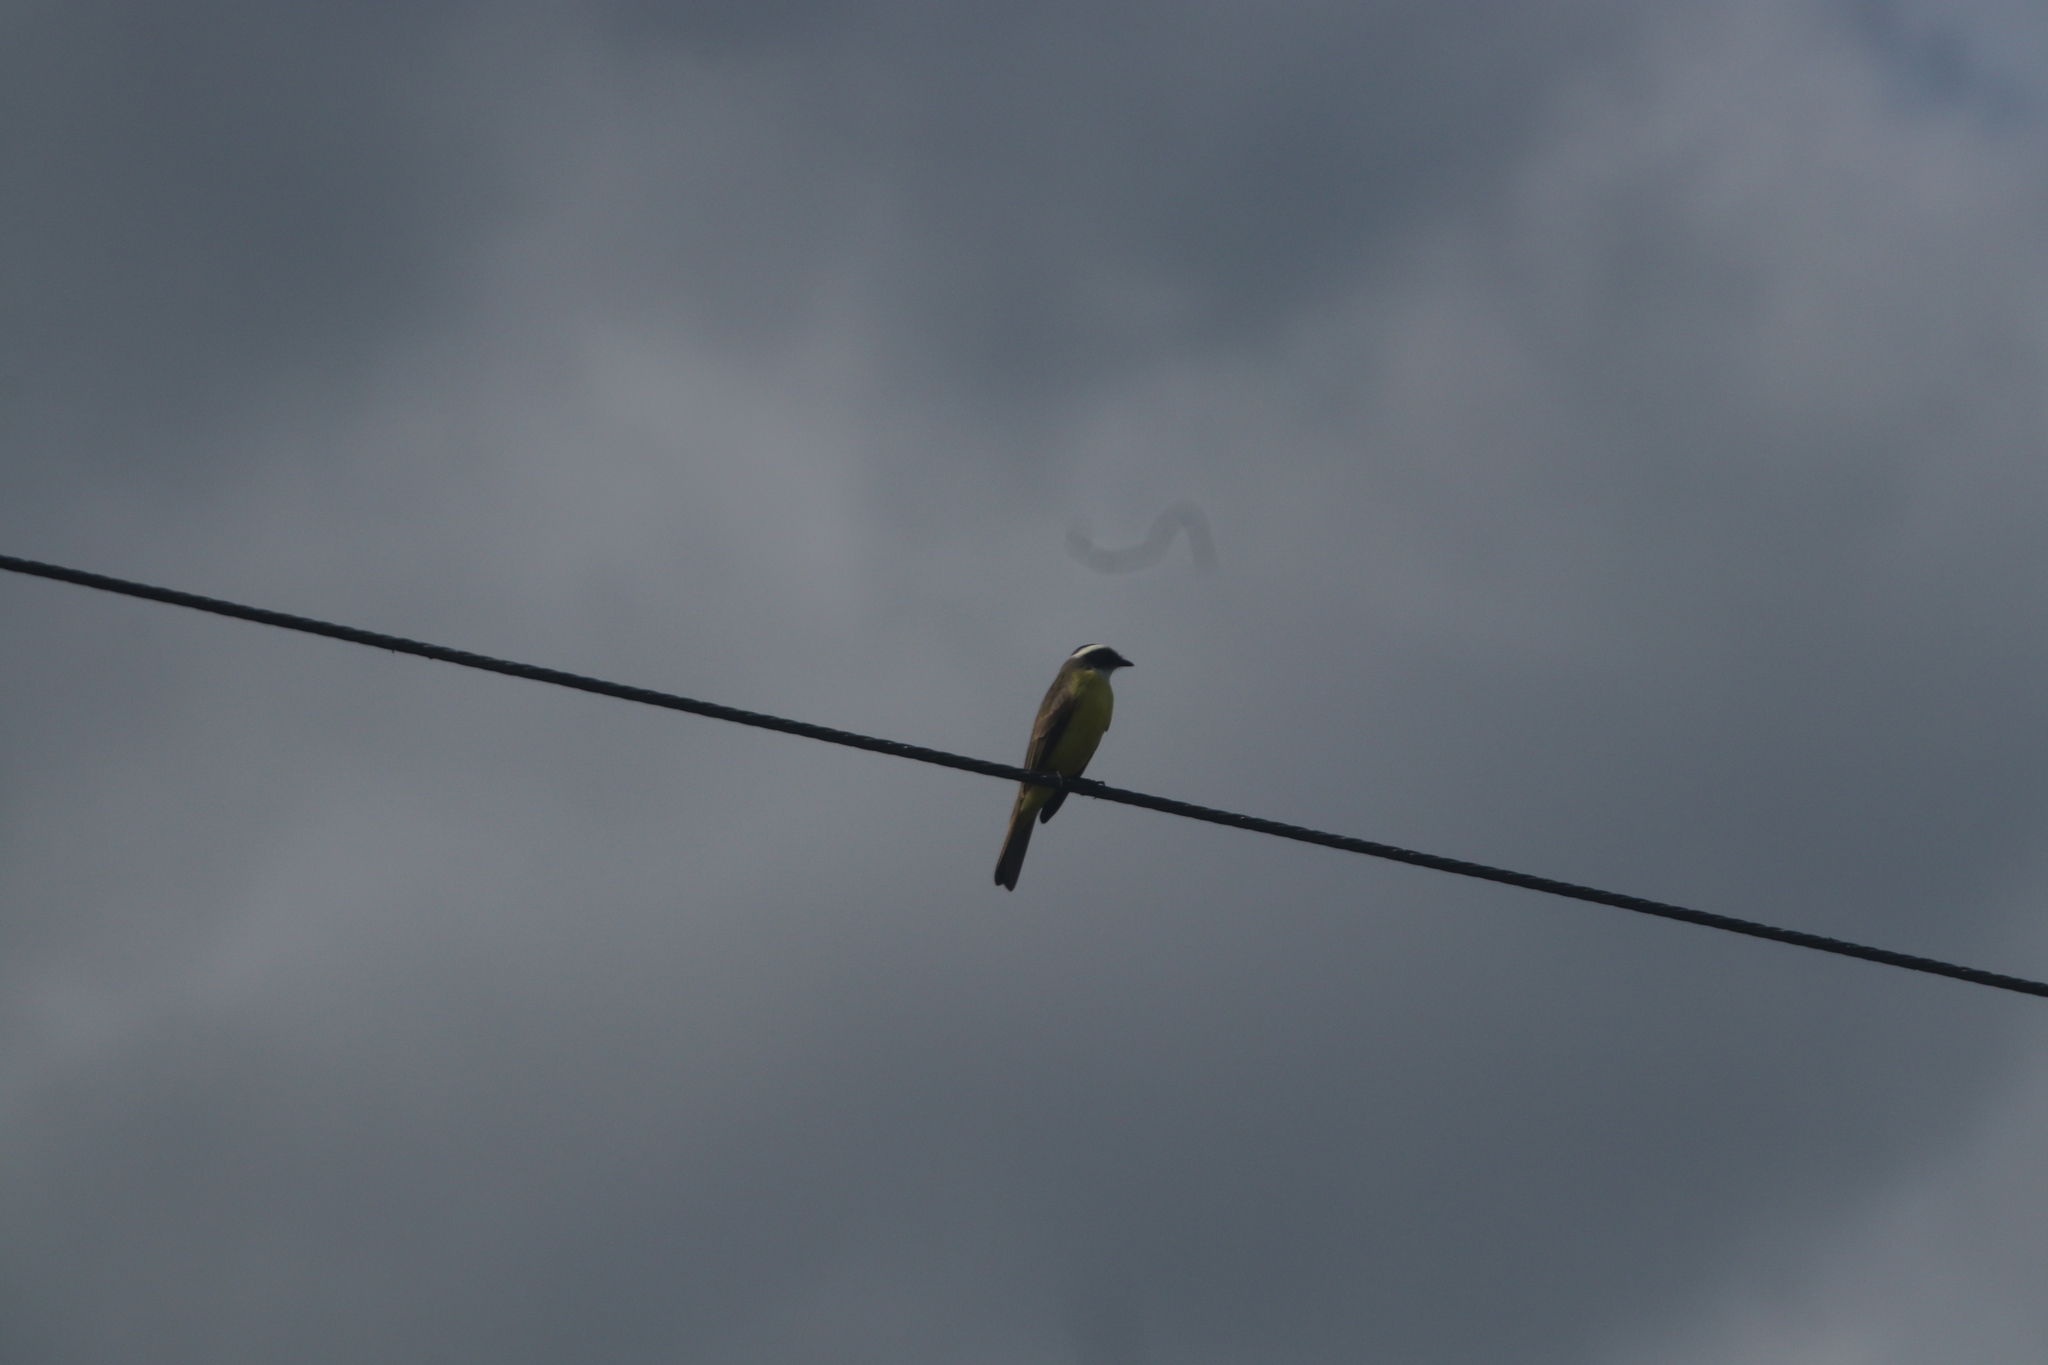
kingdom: Animalia
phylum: Chordata
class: Aves
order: Passeriformes
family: Tyrannidae
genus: Myiozetetes
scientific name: Myiozetetes similis
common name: Social flycatcher
